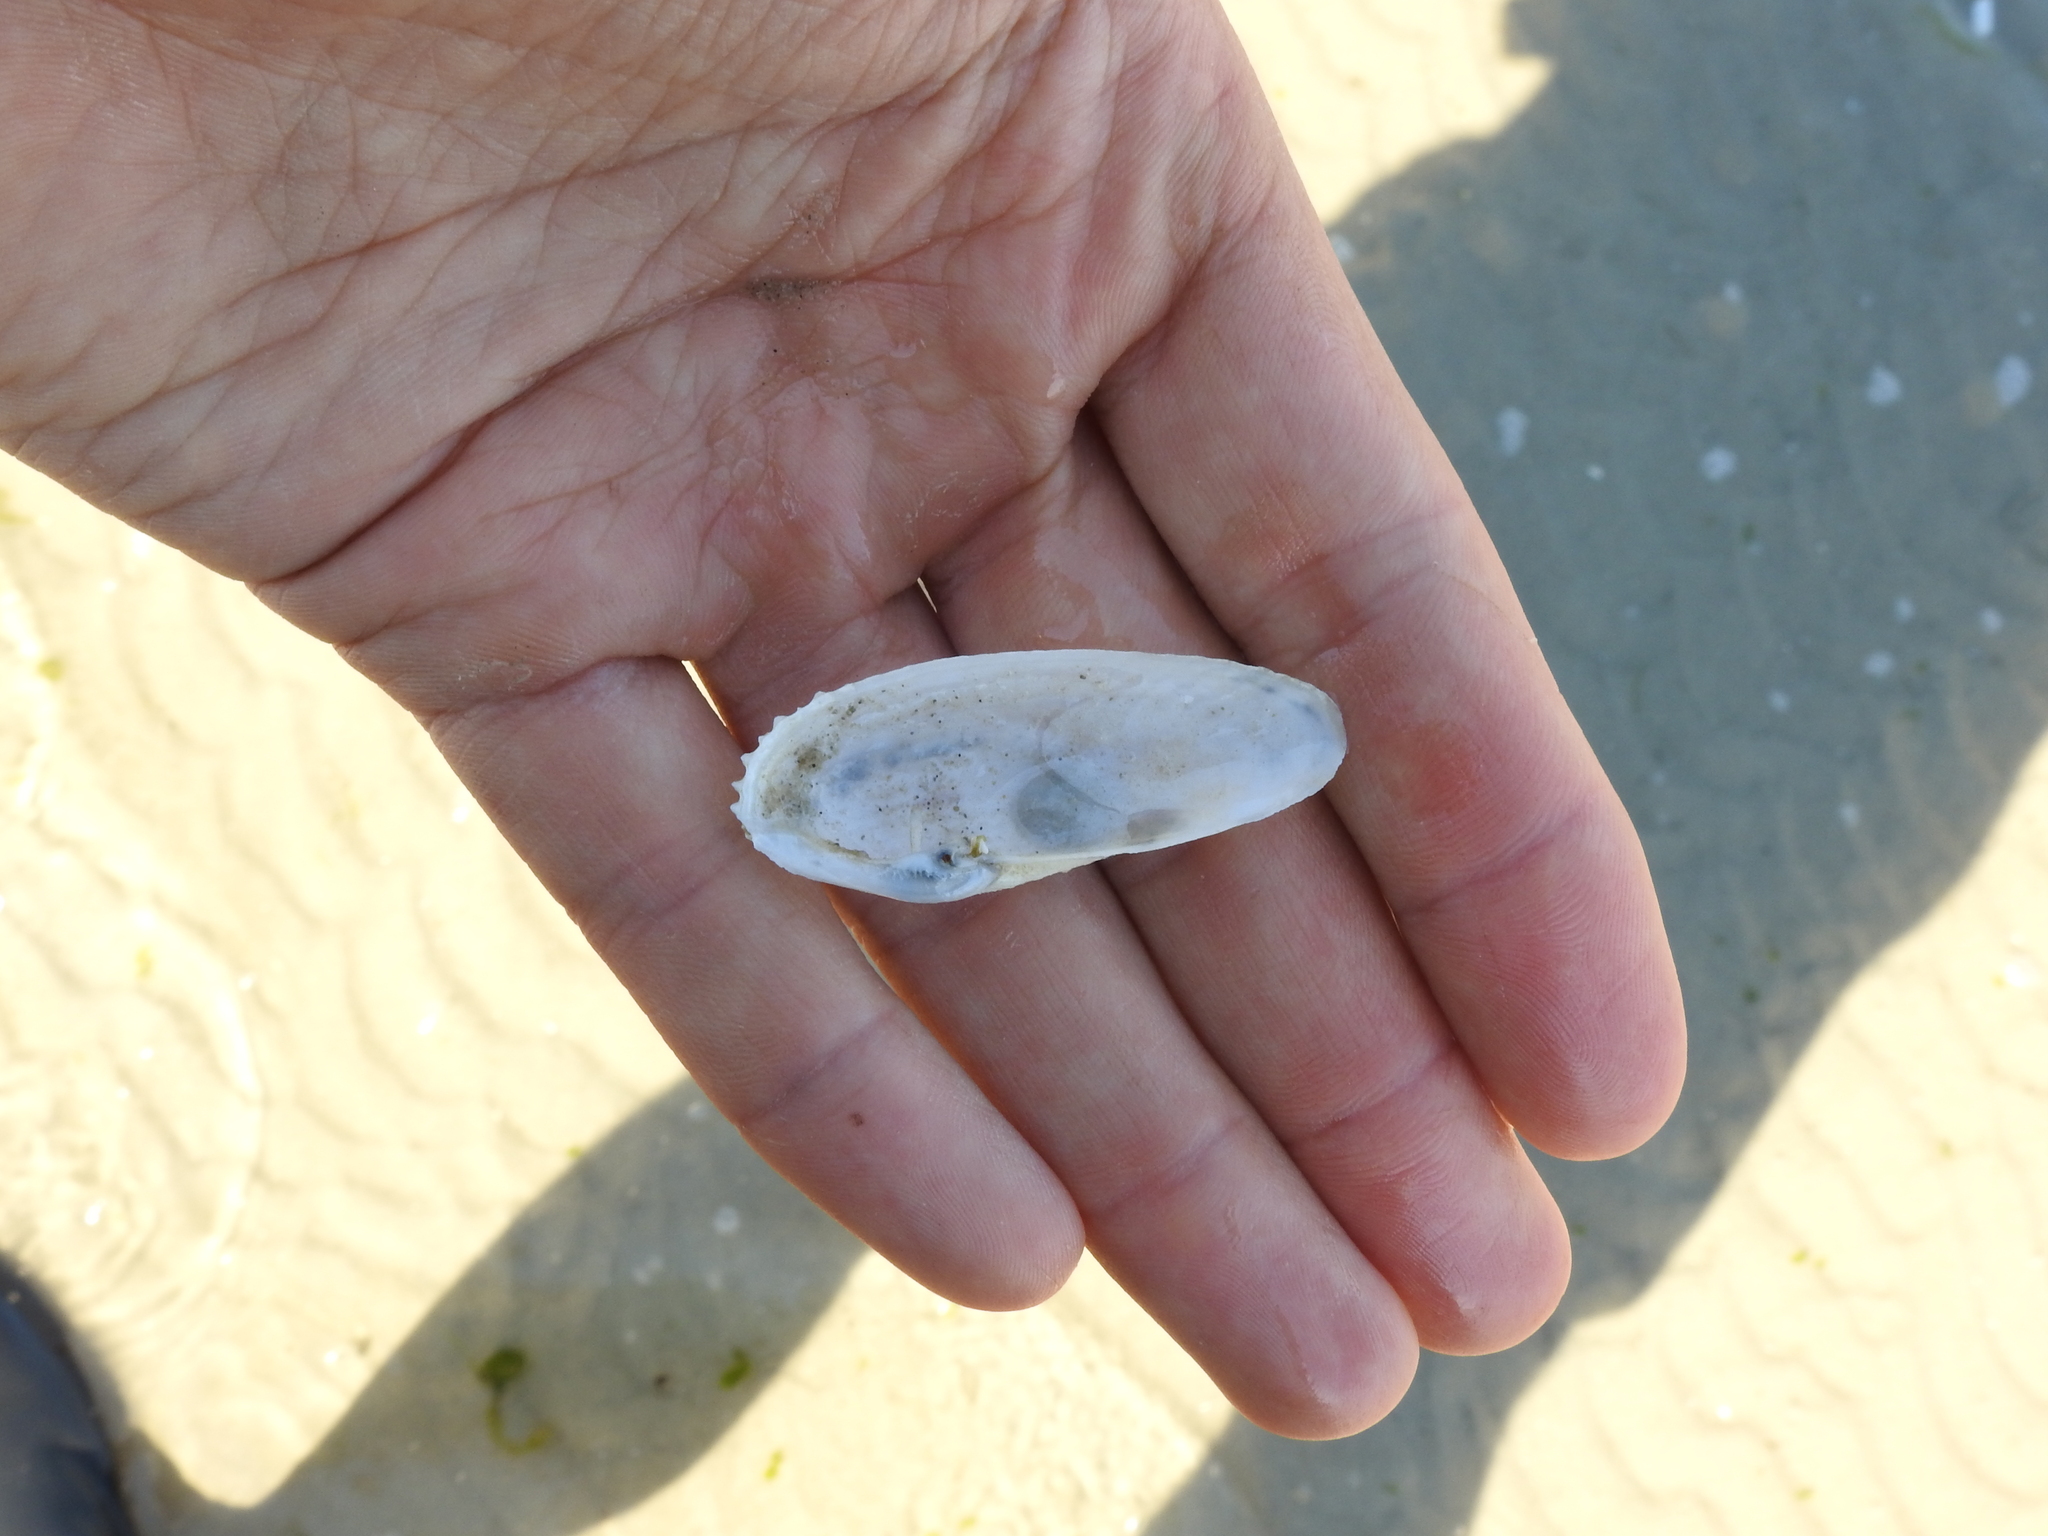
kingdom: Animalia
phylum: Mollusca
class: Bivalvia
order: Myida
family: Pholadidae
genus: Barnea
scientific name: Barnea candida
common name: White piddock
